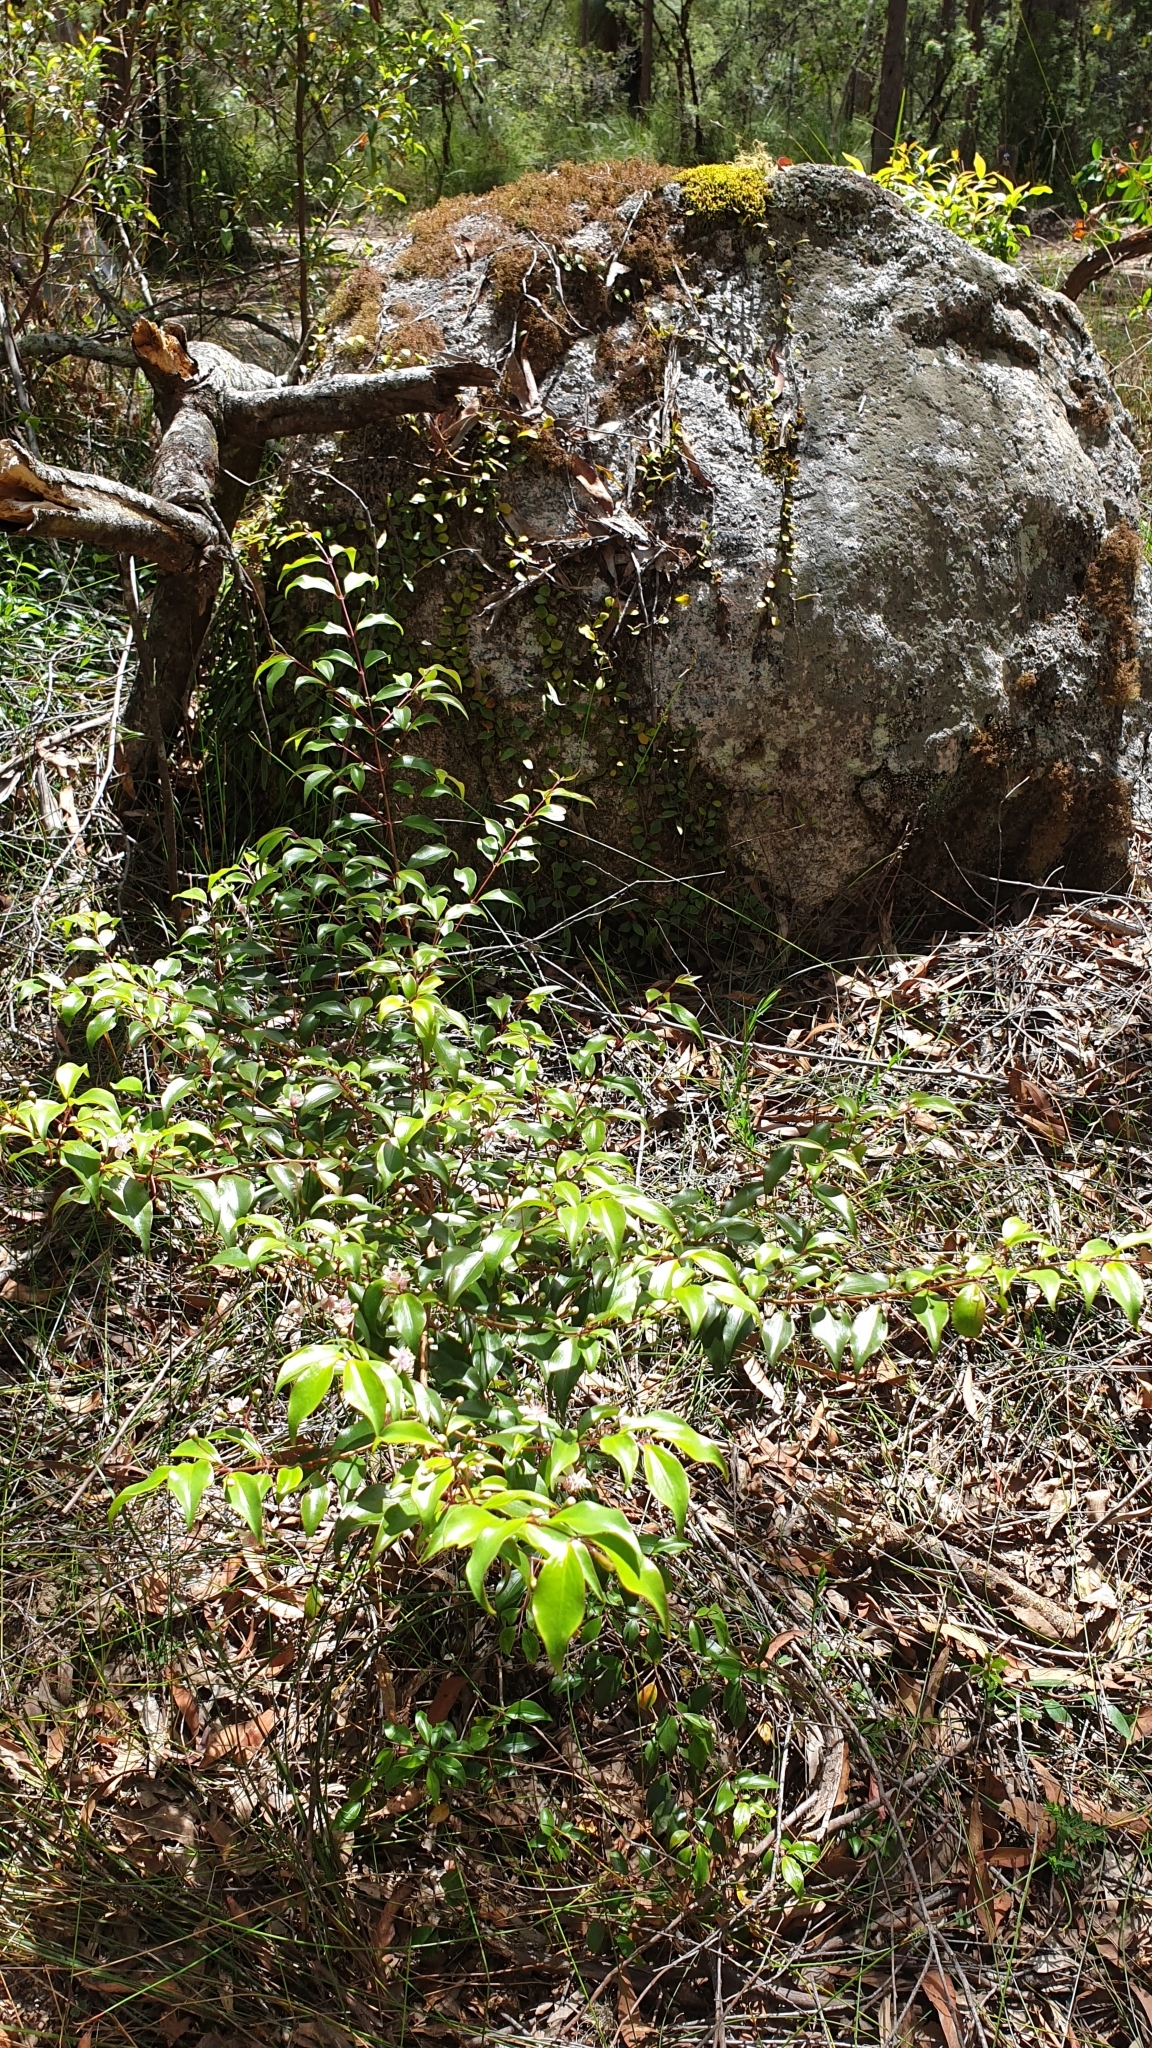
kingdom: Plantae
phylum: Tracheophyta
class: Magnoliopsida
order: Myrtales
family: Myrtaceae
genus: Archirhodomyrtus
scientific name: Archirhodomyrtus beckleri
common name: Beckler's myrtle
